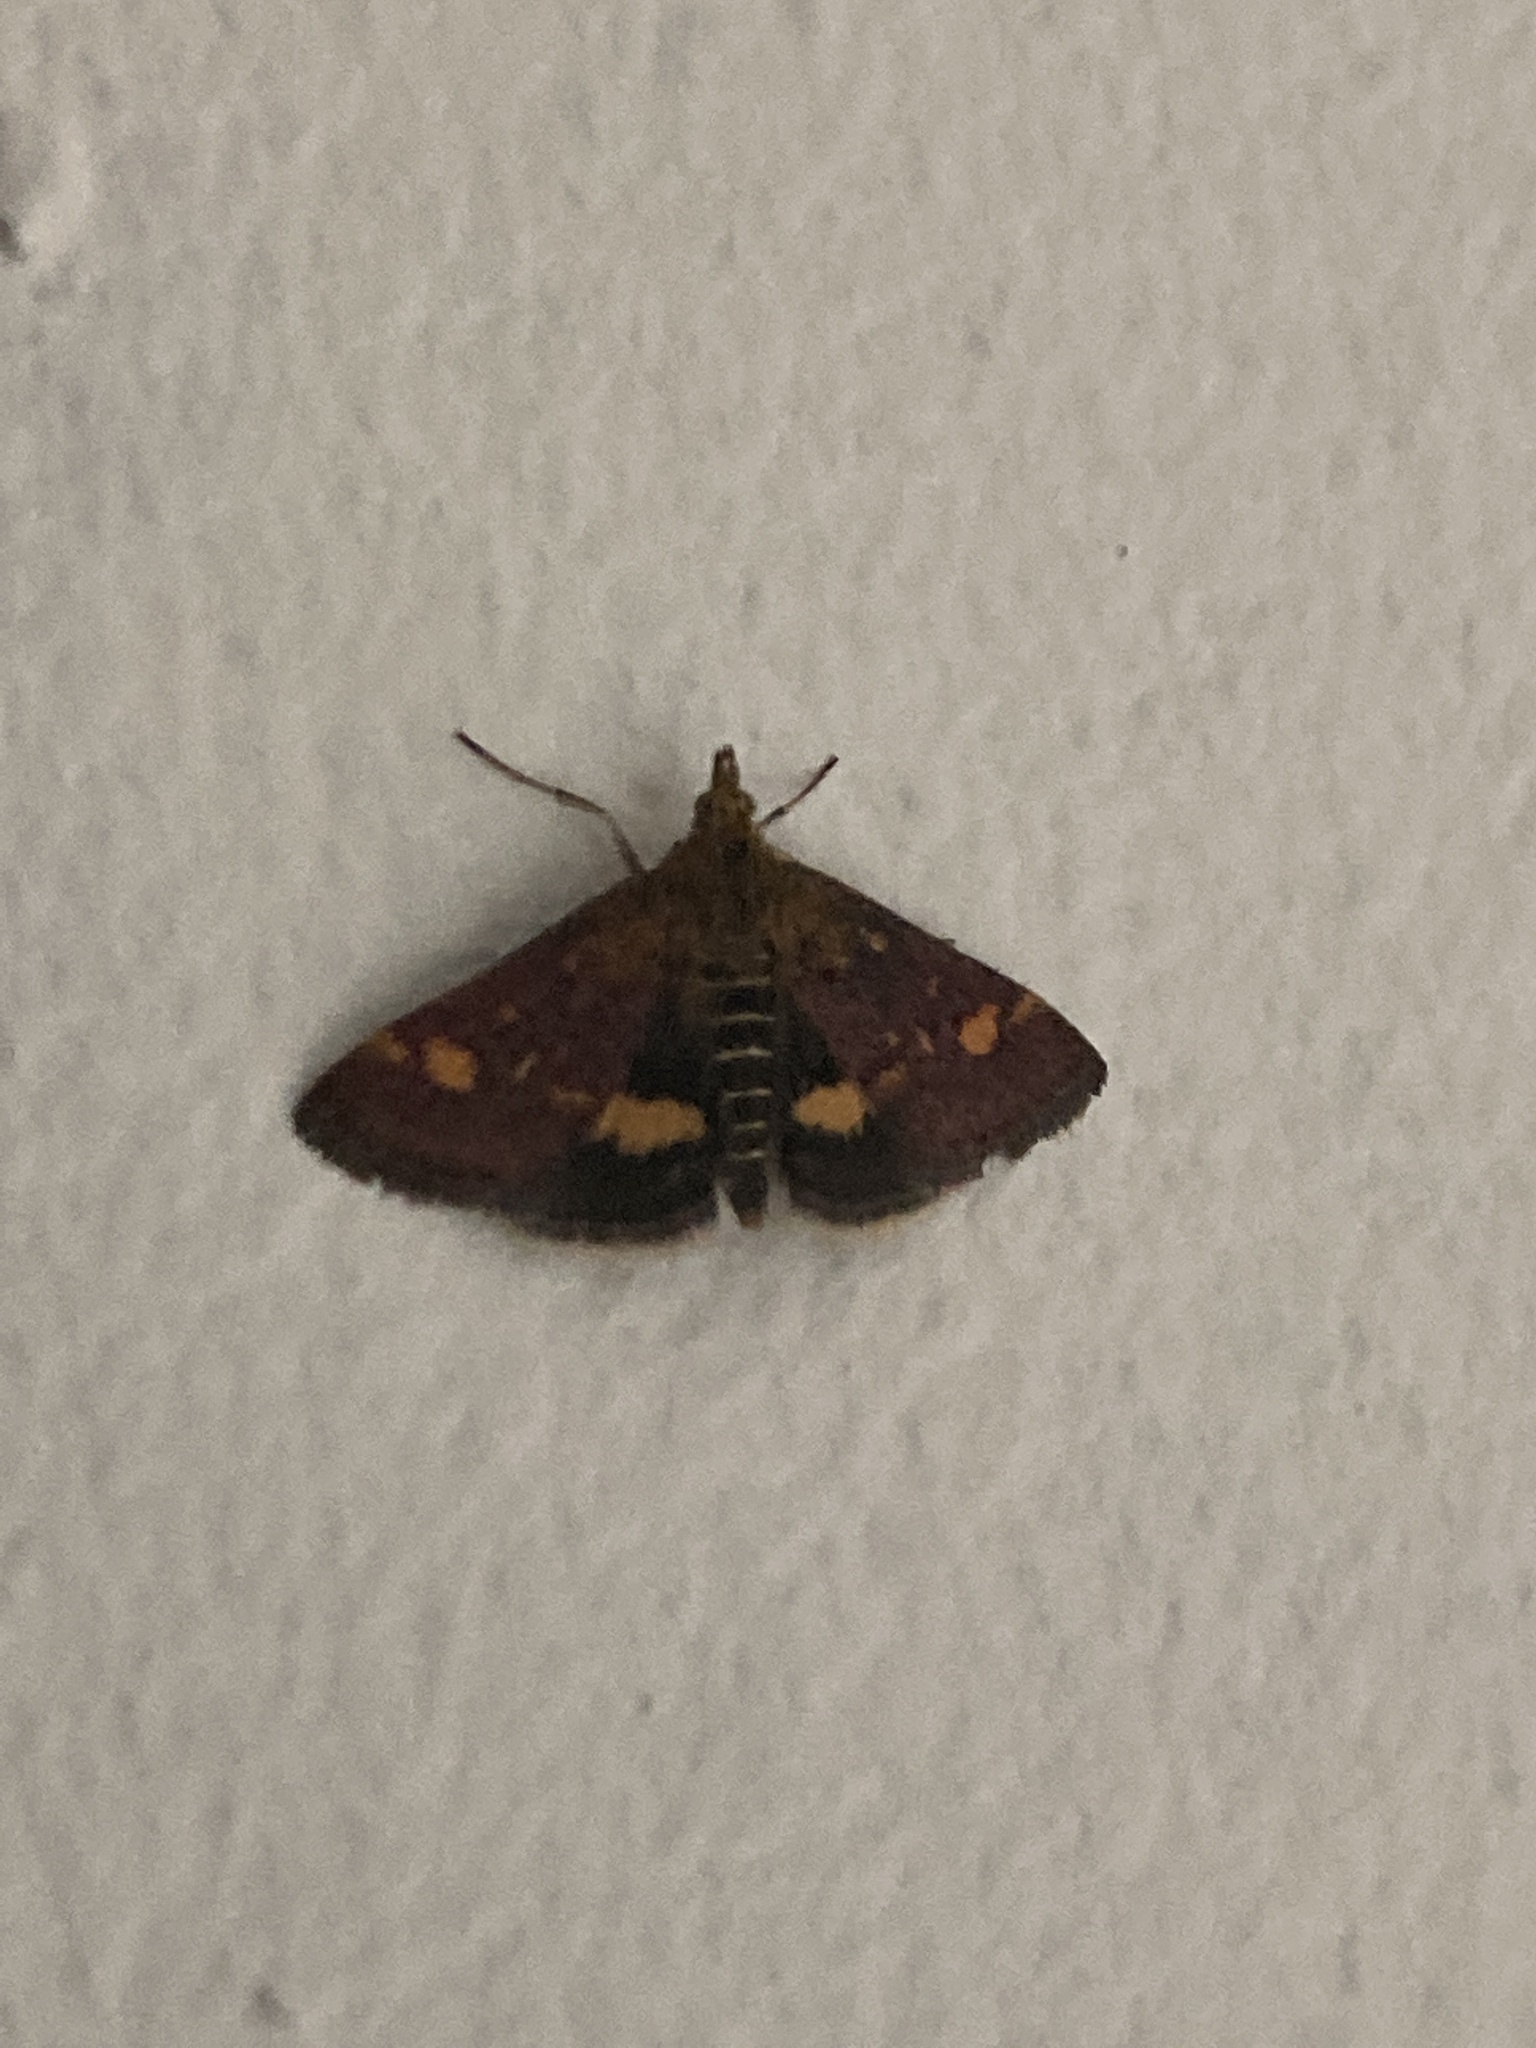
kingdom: Animalia
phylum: Arthropoda
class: Insecta
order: Lepidoptera
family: Crambidae
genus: Pyrausta
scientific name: Pyrausta aurata
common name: Small purple & gold
